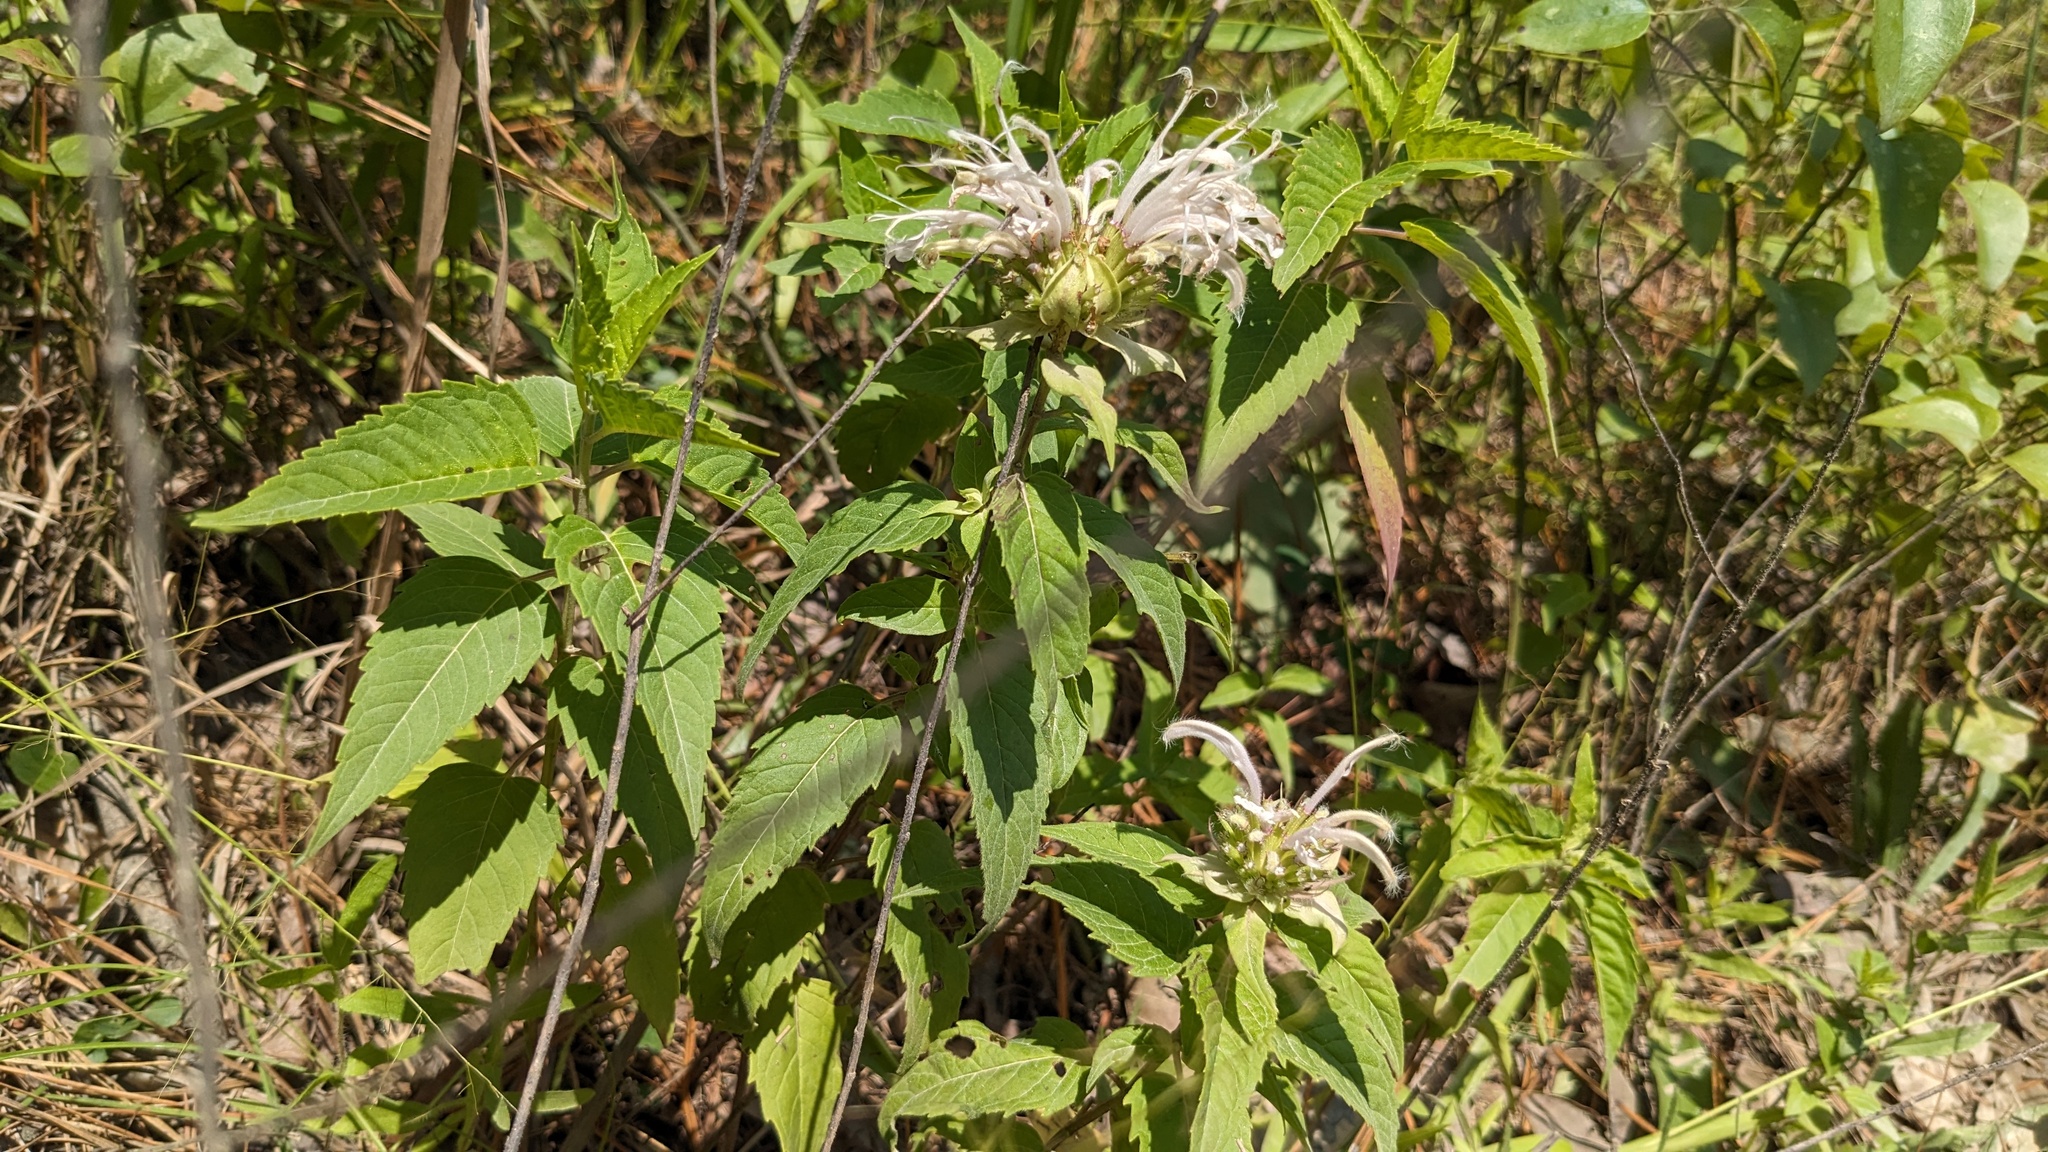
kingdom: Plantae
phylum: Tracheophyta
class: Magnoliopsida
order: Lamiales
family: Lamiaceae
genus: Monarda
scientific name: Monarda fistulosa
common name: Purple beebalm
